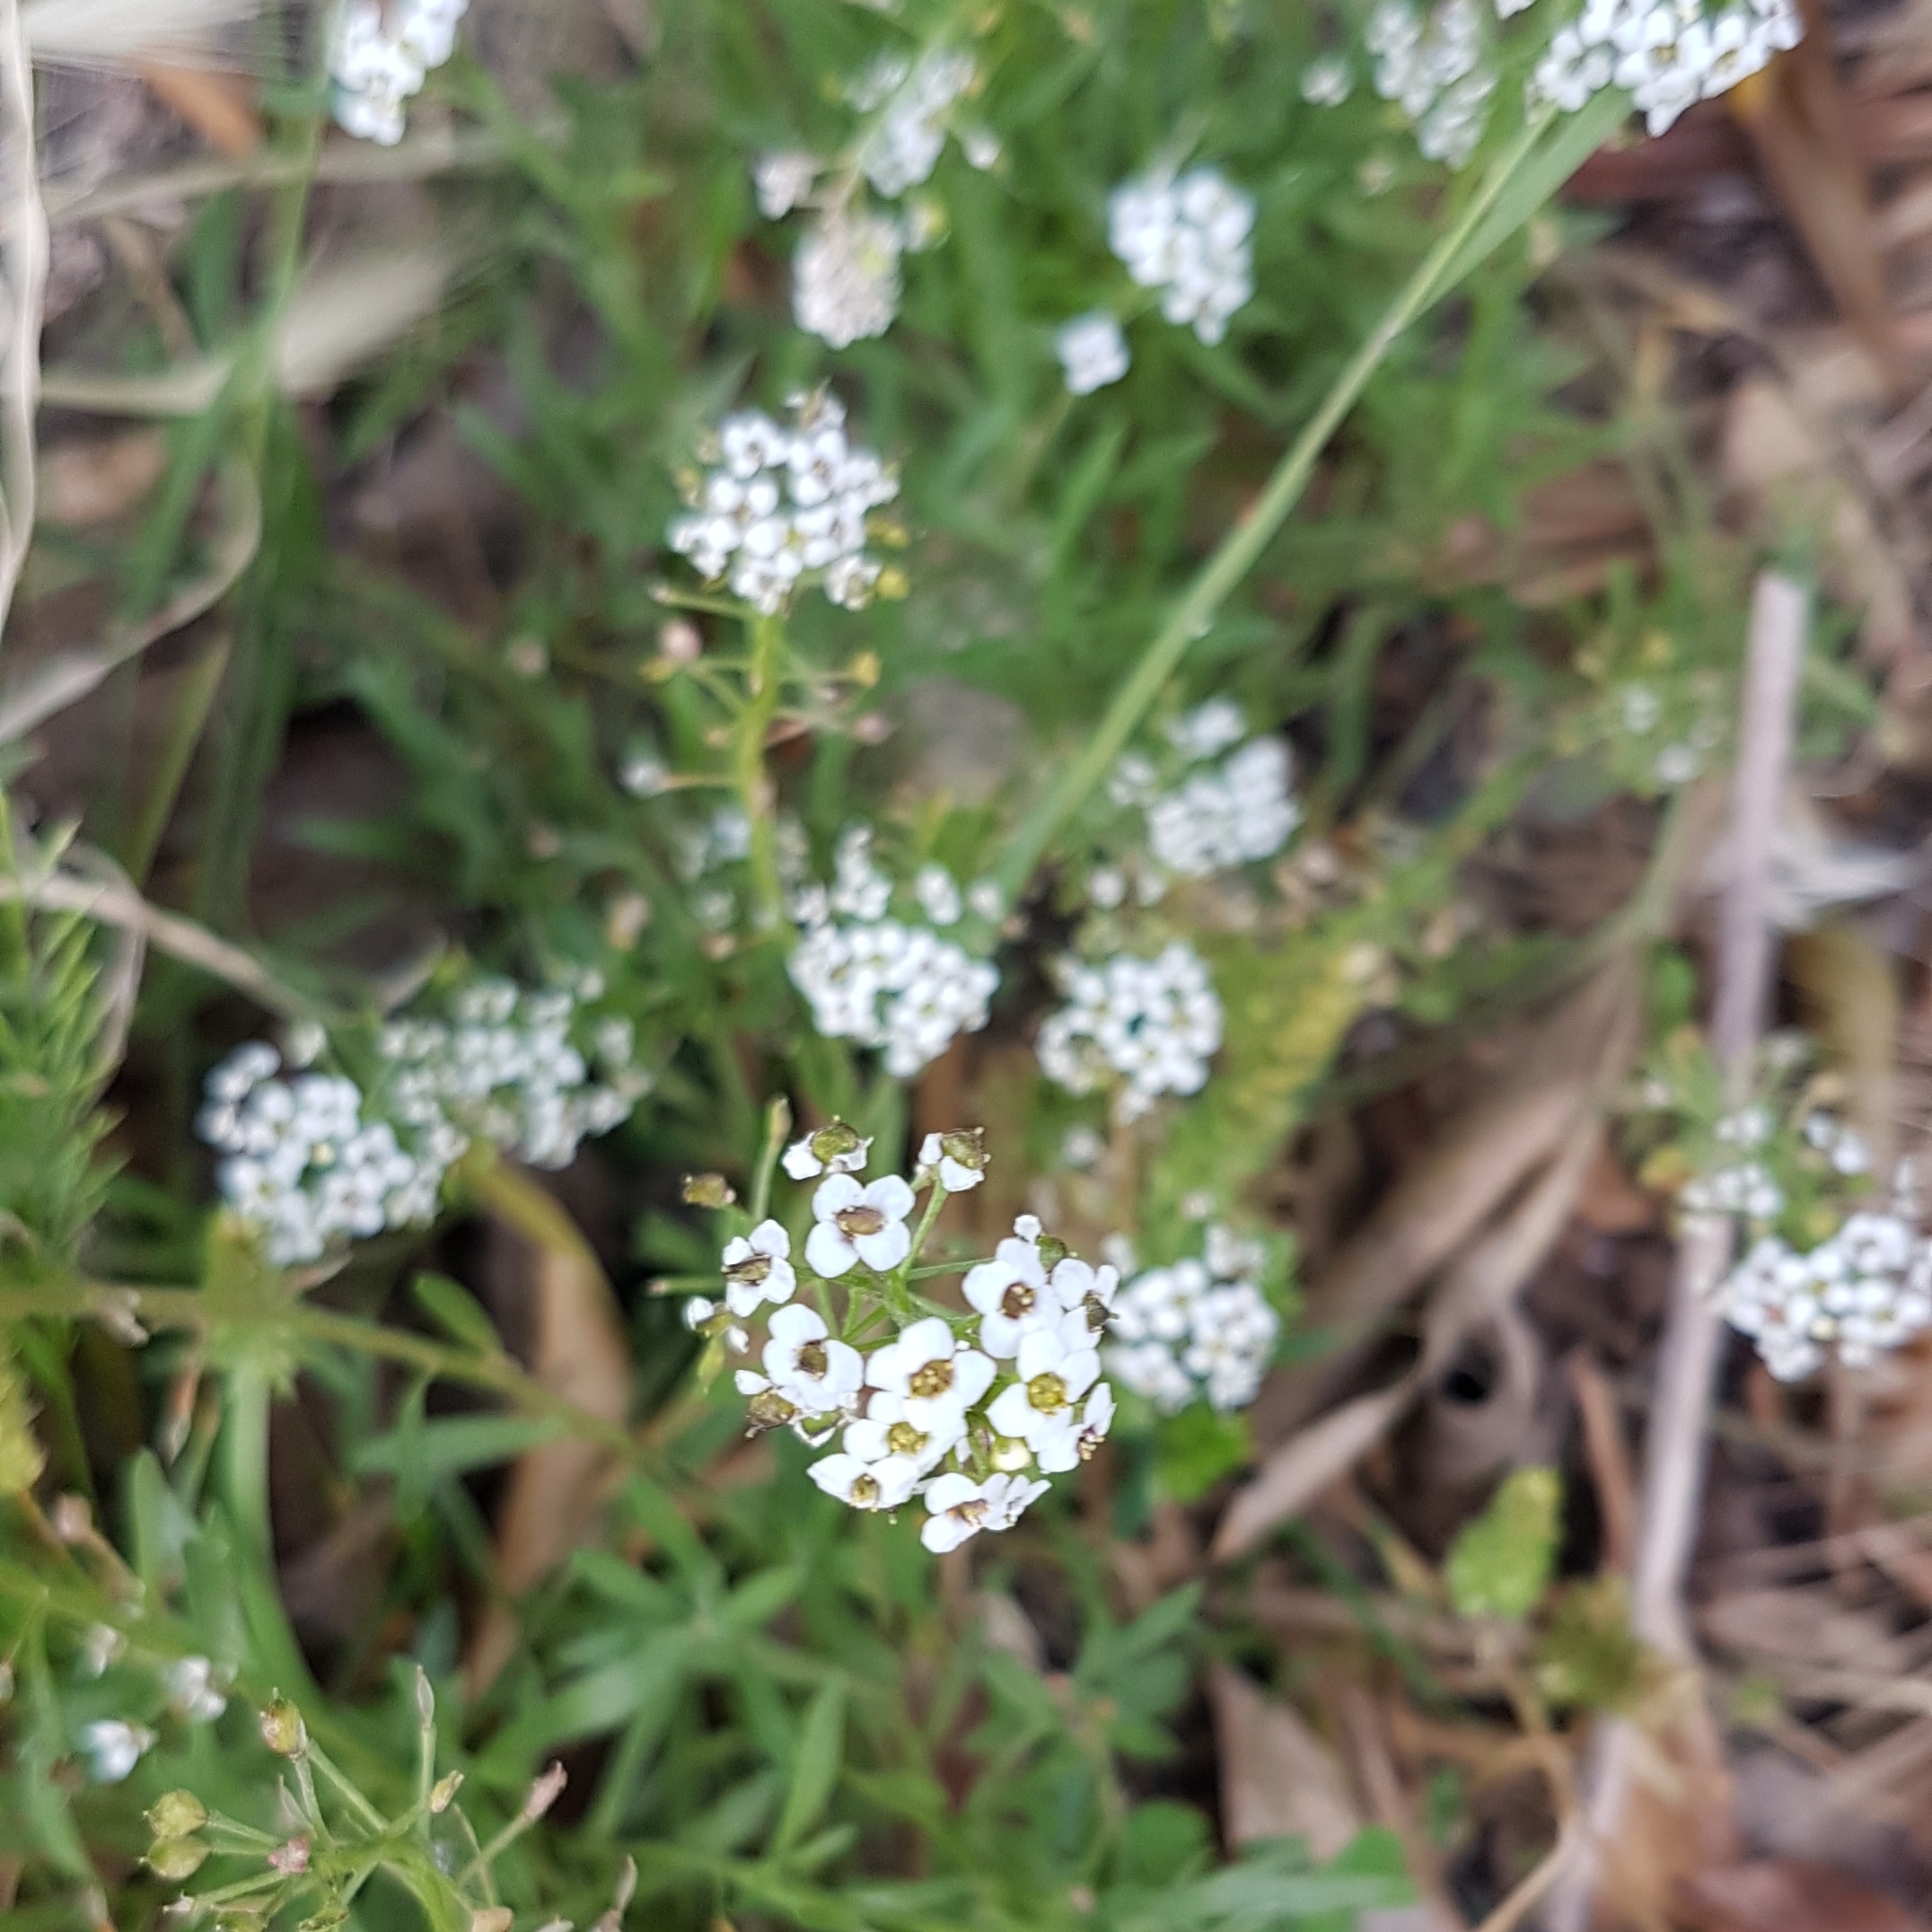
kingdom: Plantae
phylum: Tracheophyta
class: Magnoliopsida
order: Brassicales
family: Brassicaceae
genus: Lobularia
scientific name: Lobularia maritima
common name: Sweet alison
